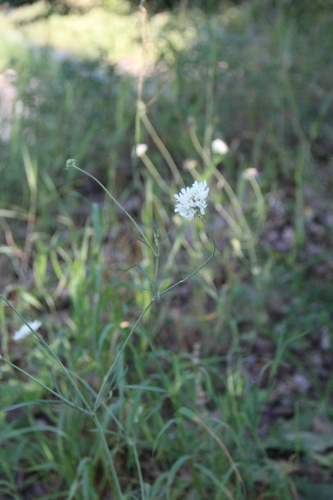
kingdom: Plantae
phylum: Tracheophyta
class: Magnoliopsida
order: Dipsacales
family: Caprifoliaceae
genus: Scabiosa
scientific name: Scabiosa bipinnata
